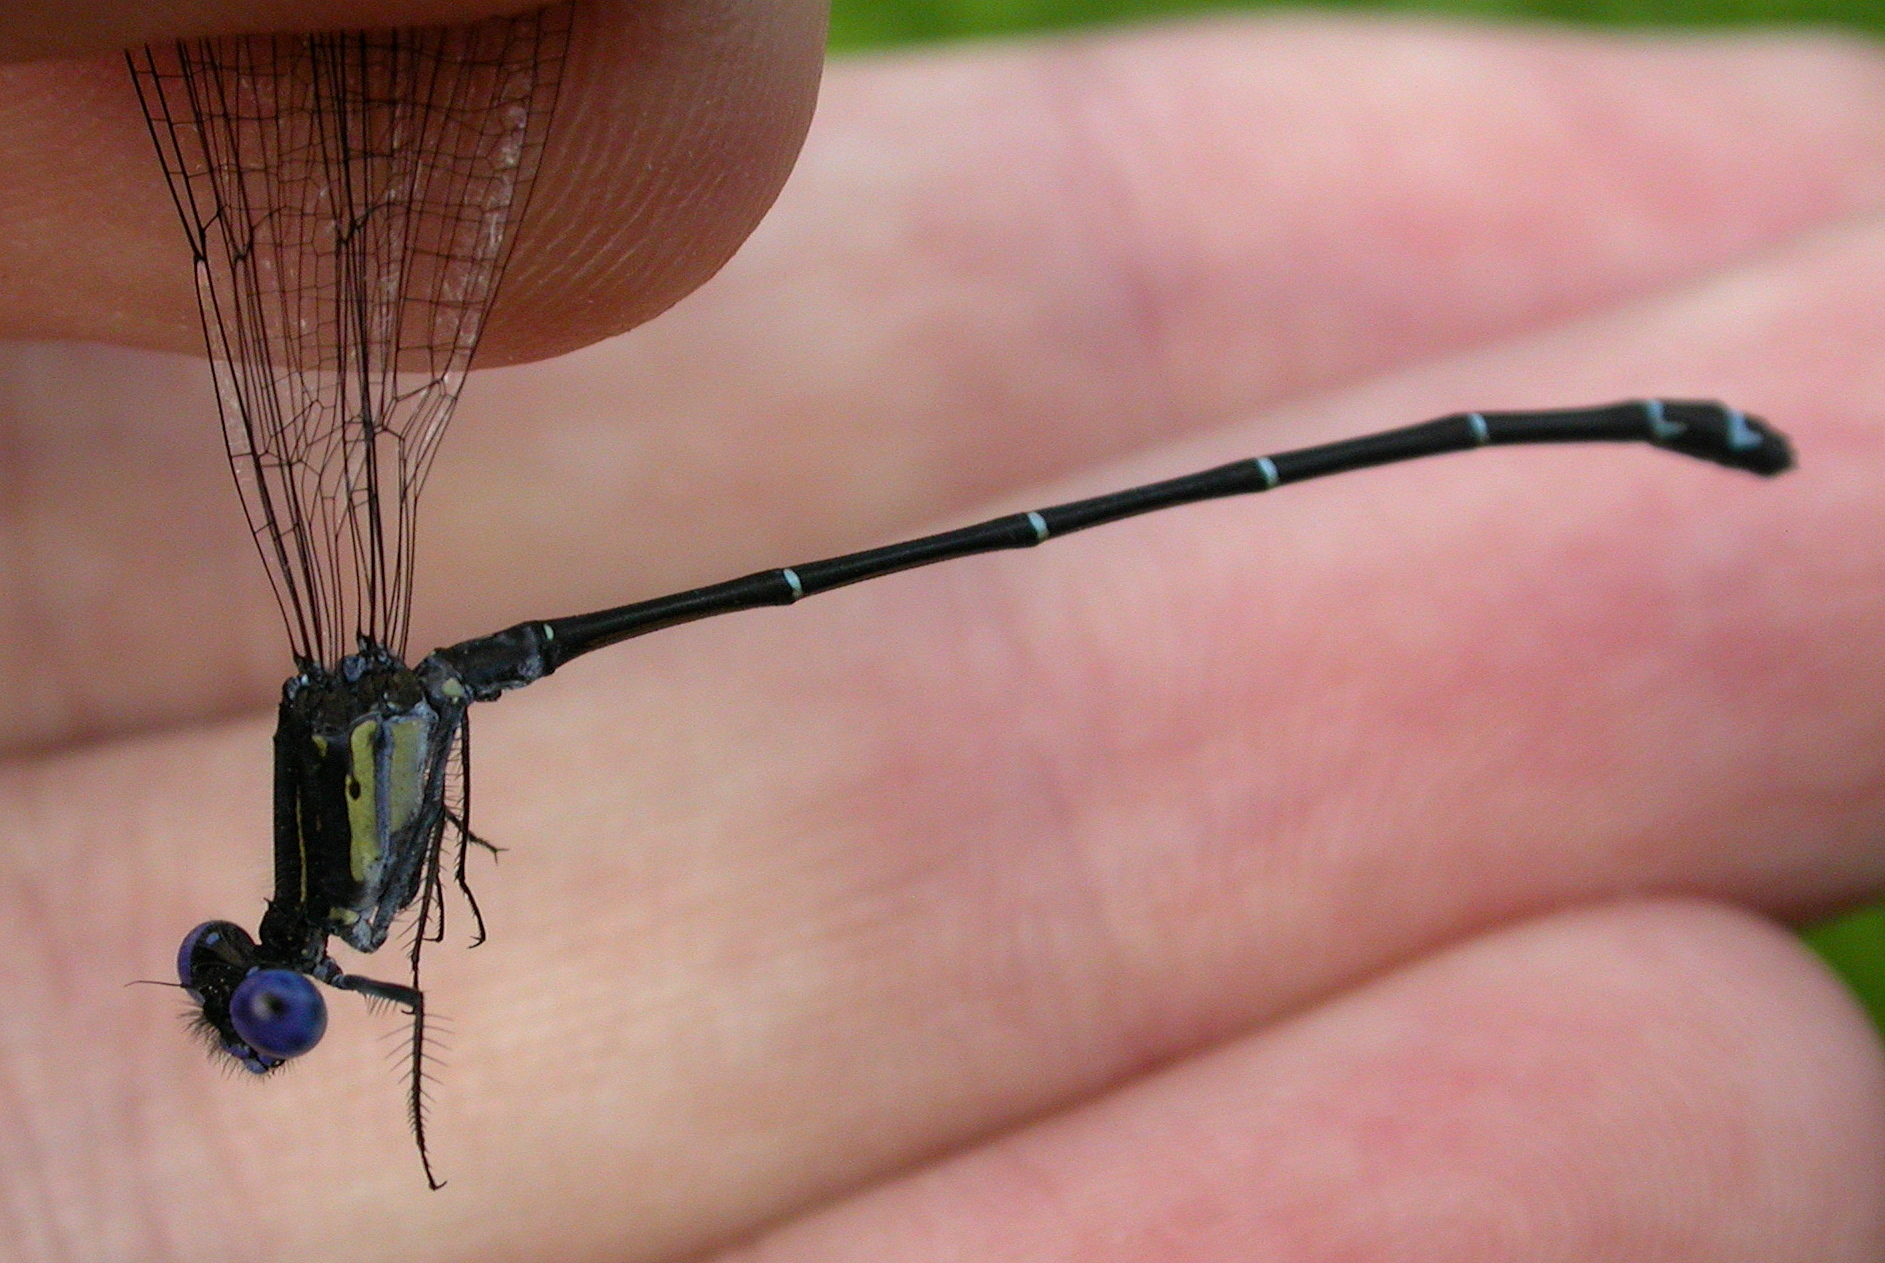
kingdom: Animalia
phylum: Arthropoda
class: Insecta
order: Odonata
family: Coenagrionidae
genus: Argia
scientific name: Argia translata
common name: Dusky dancer
